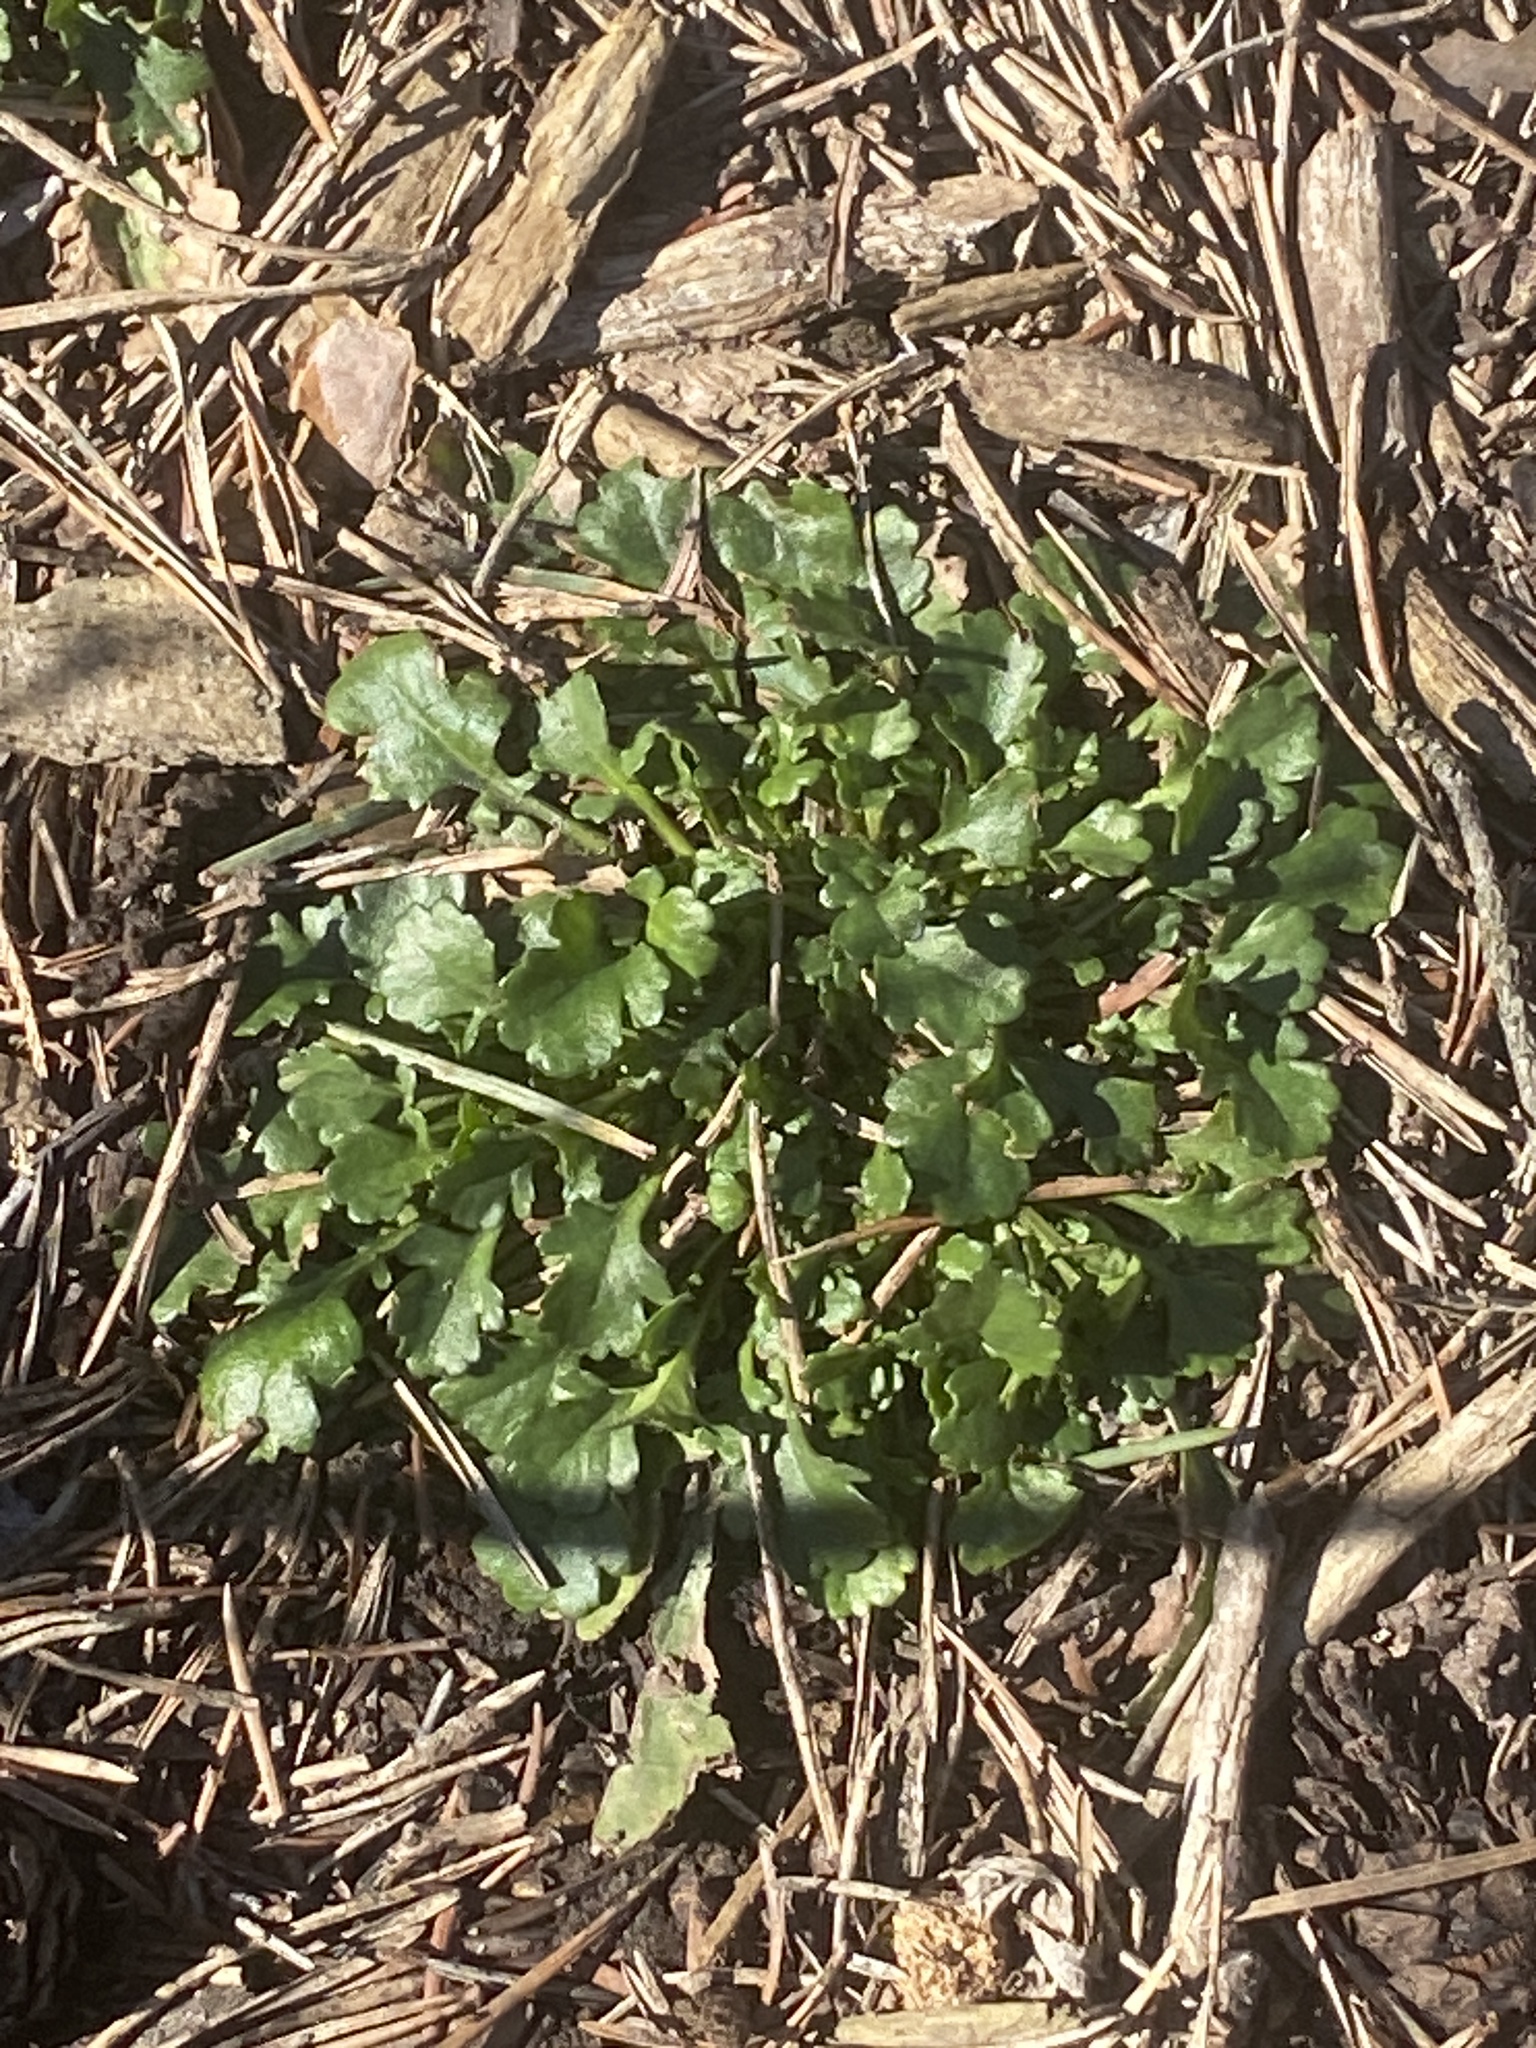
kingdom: Plantae
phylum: Tracheophyta
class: Magnoliopsida
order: Asterales
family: Asteraceae
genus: Leucanthemum
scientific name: Leucanthemum vulgare
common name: Oxeye daisy
